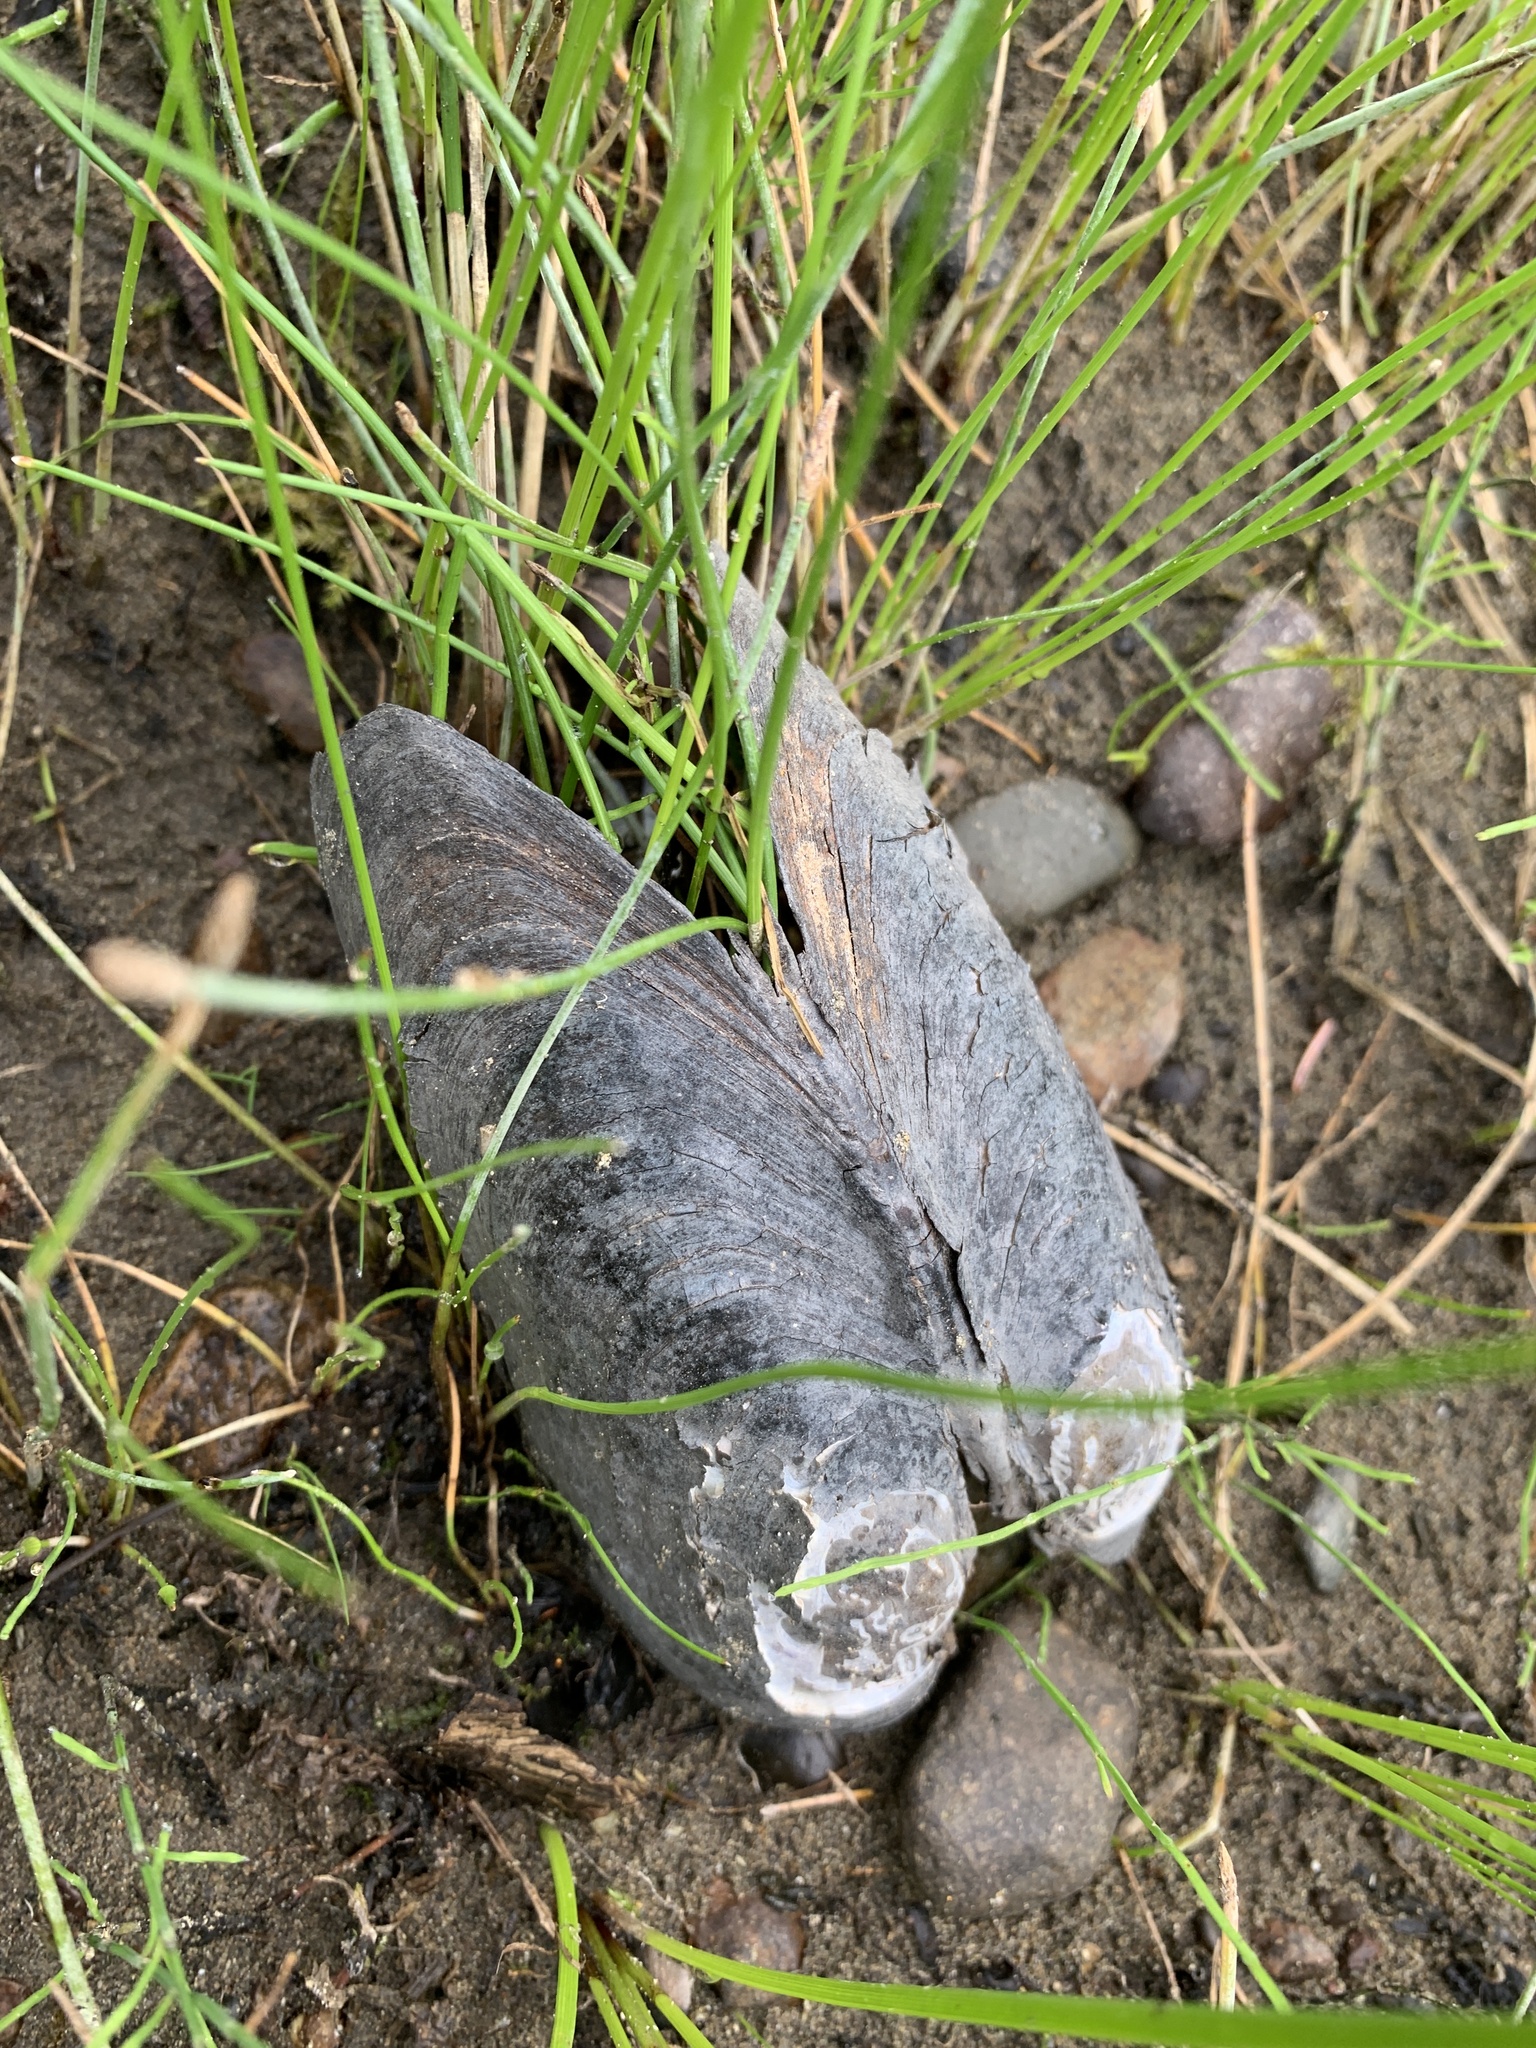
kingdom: Animalia
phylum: Mollusca
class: Bivalvia
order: Unionida
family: Margaritiferidae
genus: Margaritifera
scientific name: Margaritifera falcata
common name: Western pearlshell
